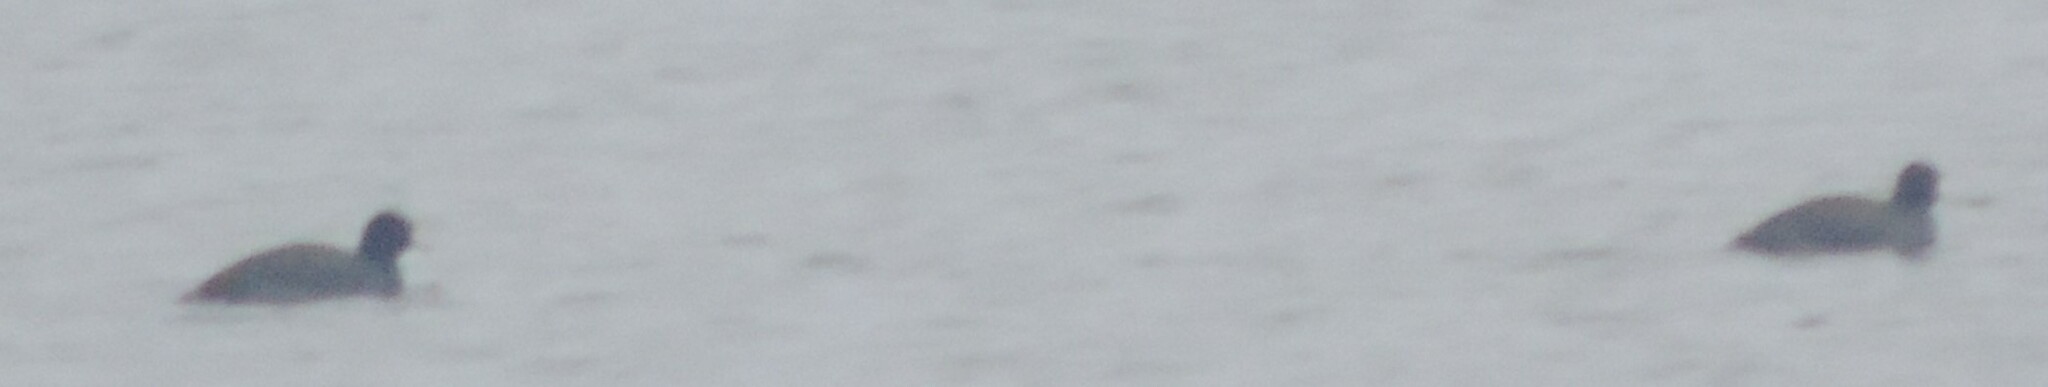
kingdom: Animalia
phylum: Chordata
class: Aves
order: Gruiformes
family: Rallidae
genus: Fulica
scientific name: Fulica americana
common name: American coot
